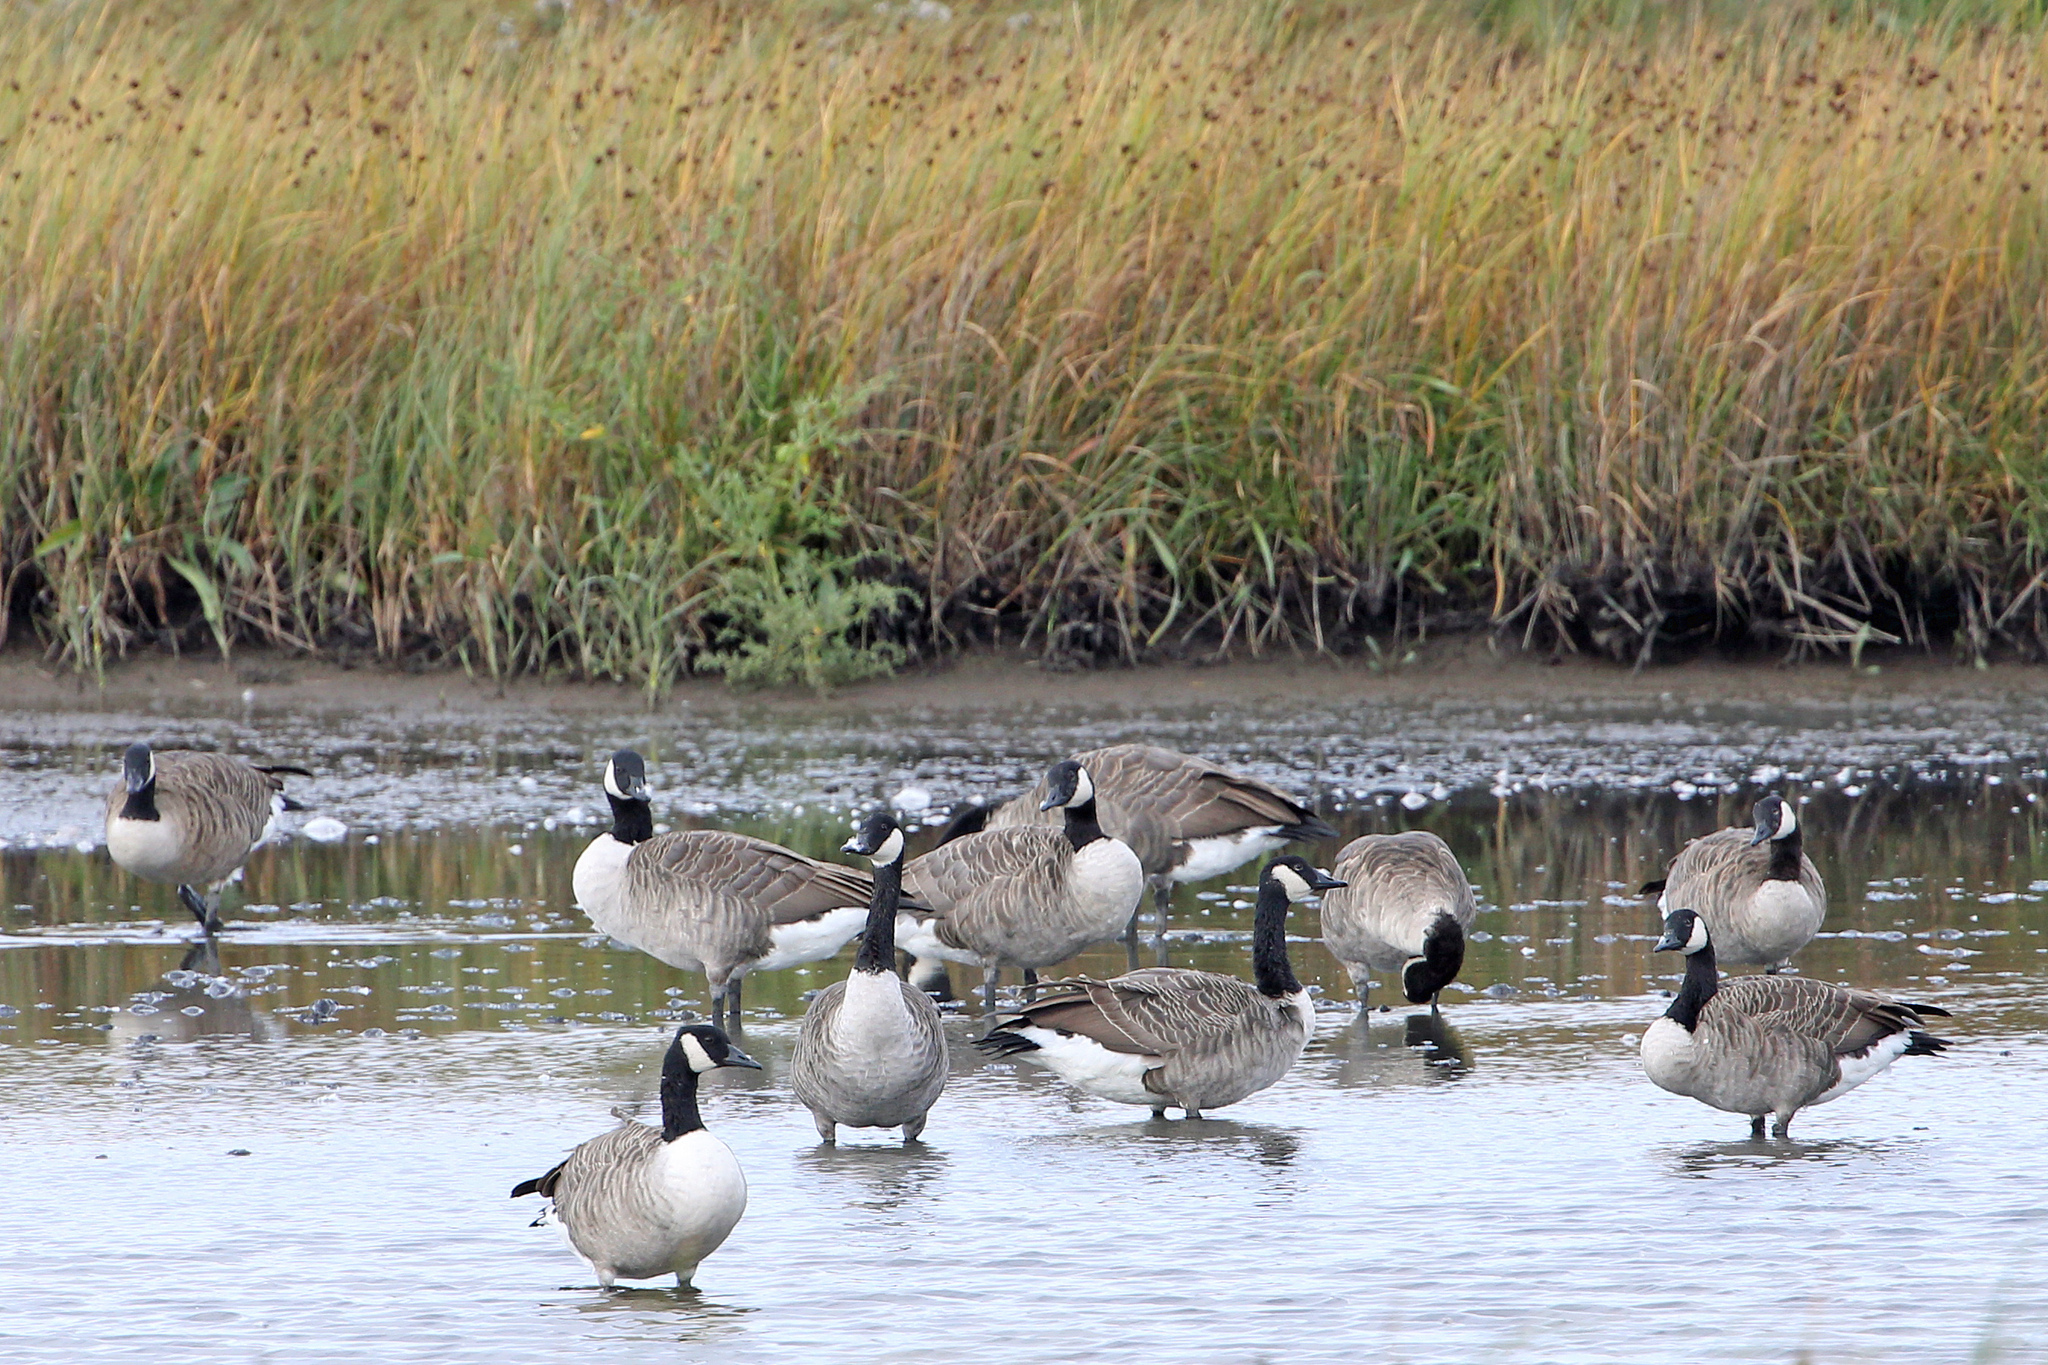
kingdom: Animalia
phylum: Chordata
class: Aves
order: Anseriformes
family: Anatidae
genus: Branta
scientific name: Branta canadensis
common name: Canada goose
